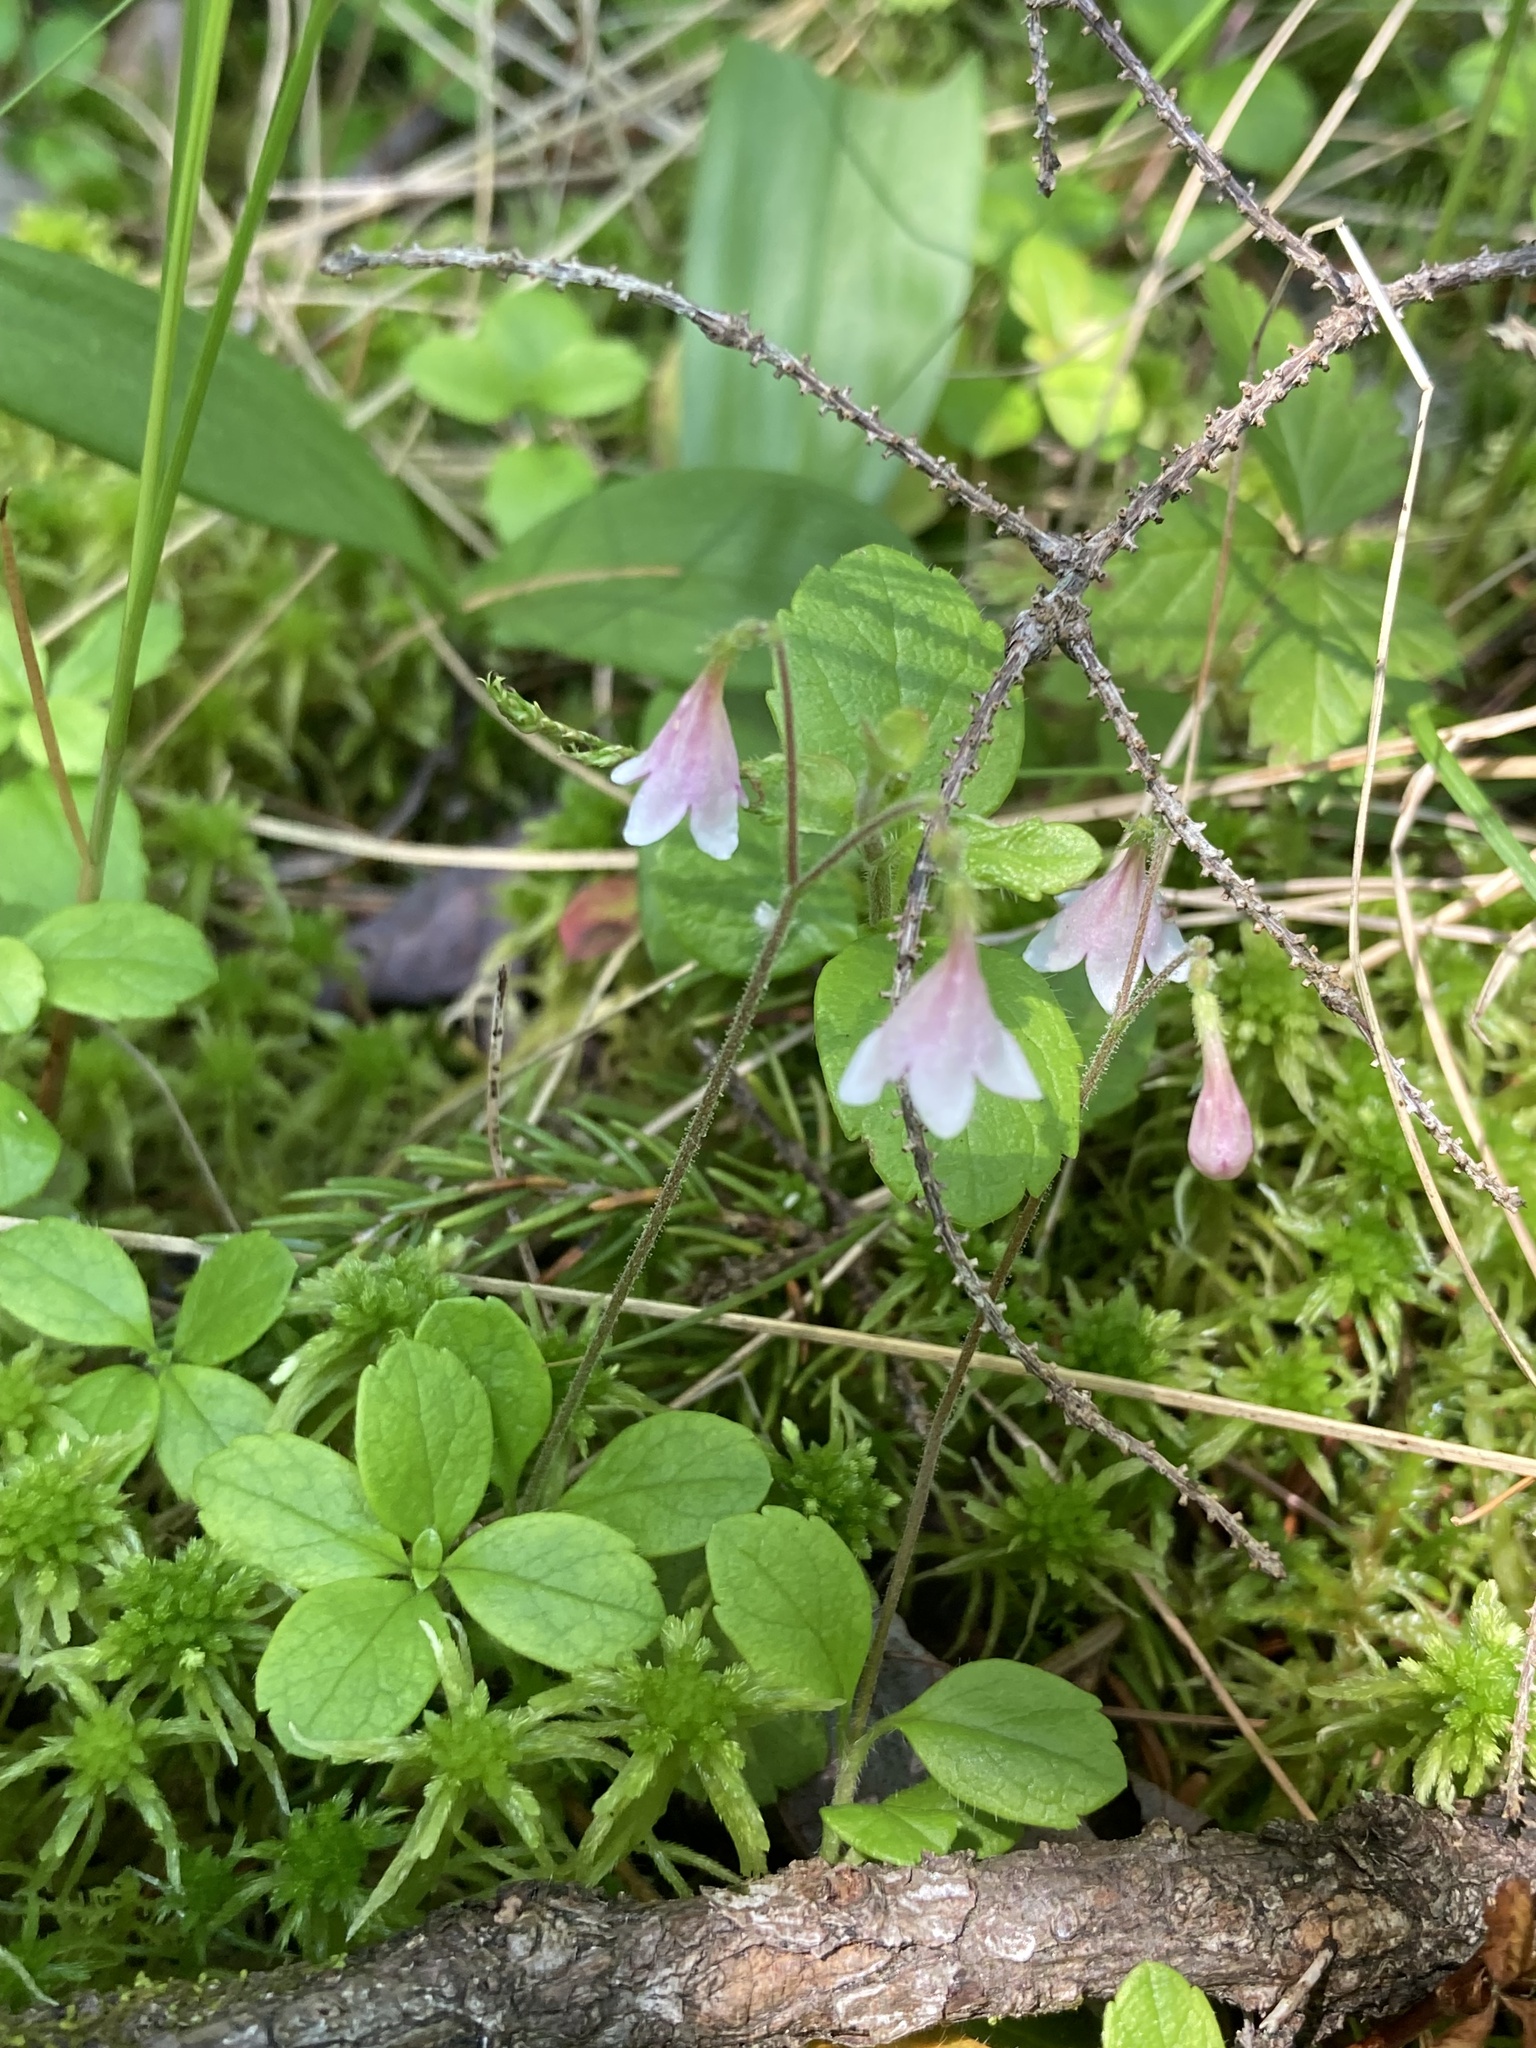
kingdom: Plantae
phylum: Tracheophyta
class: Magnoliopsida
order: Dipsacales
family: Caprifoliaceae
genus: Linnaea
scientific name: Linnaea borealis
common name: Twinflower
